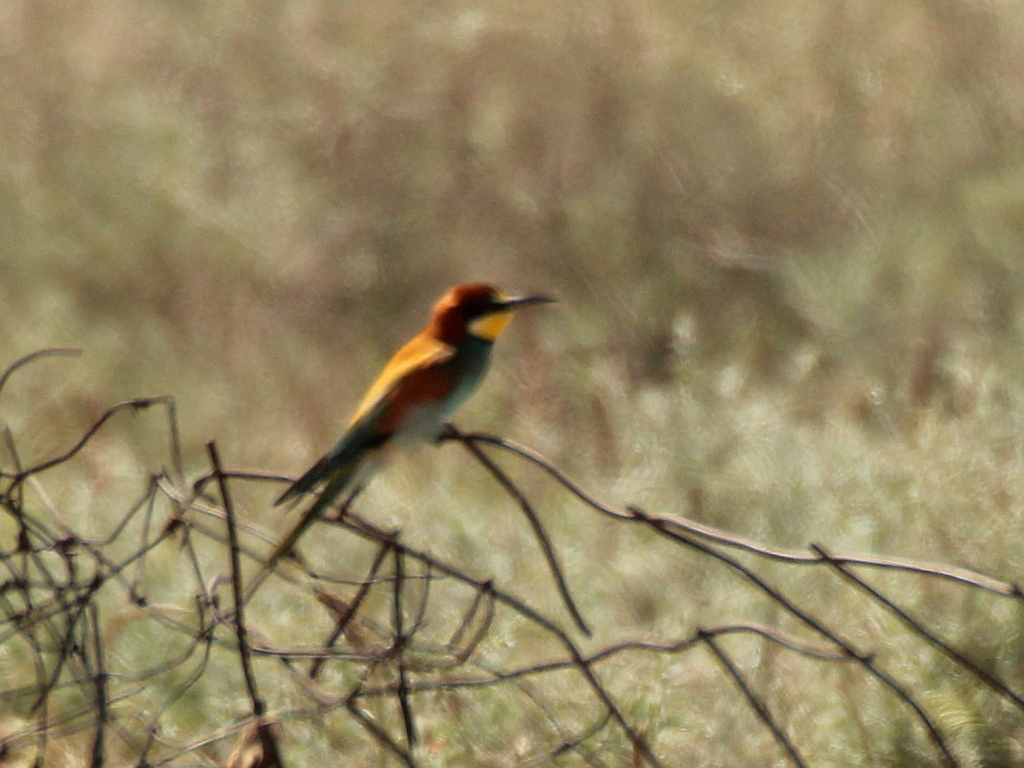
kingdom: Animalia
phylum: Chordata
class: Aves
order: Coraciiformes
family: Meropidae
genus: Merops
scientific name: Merops apiaster
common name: European bee-eater
